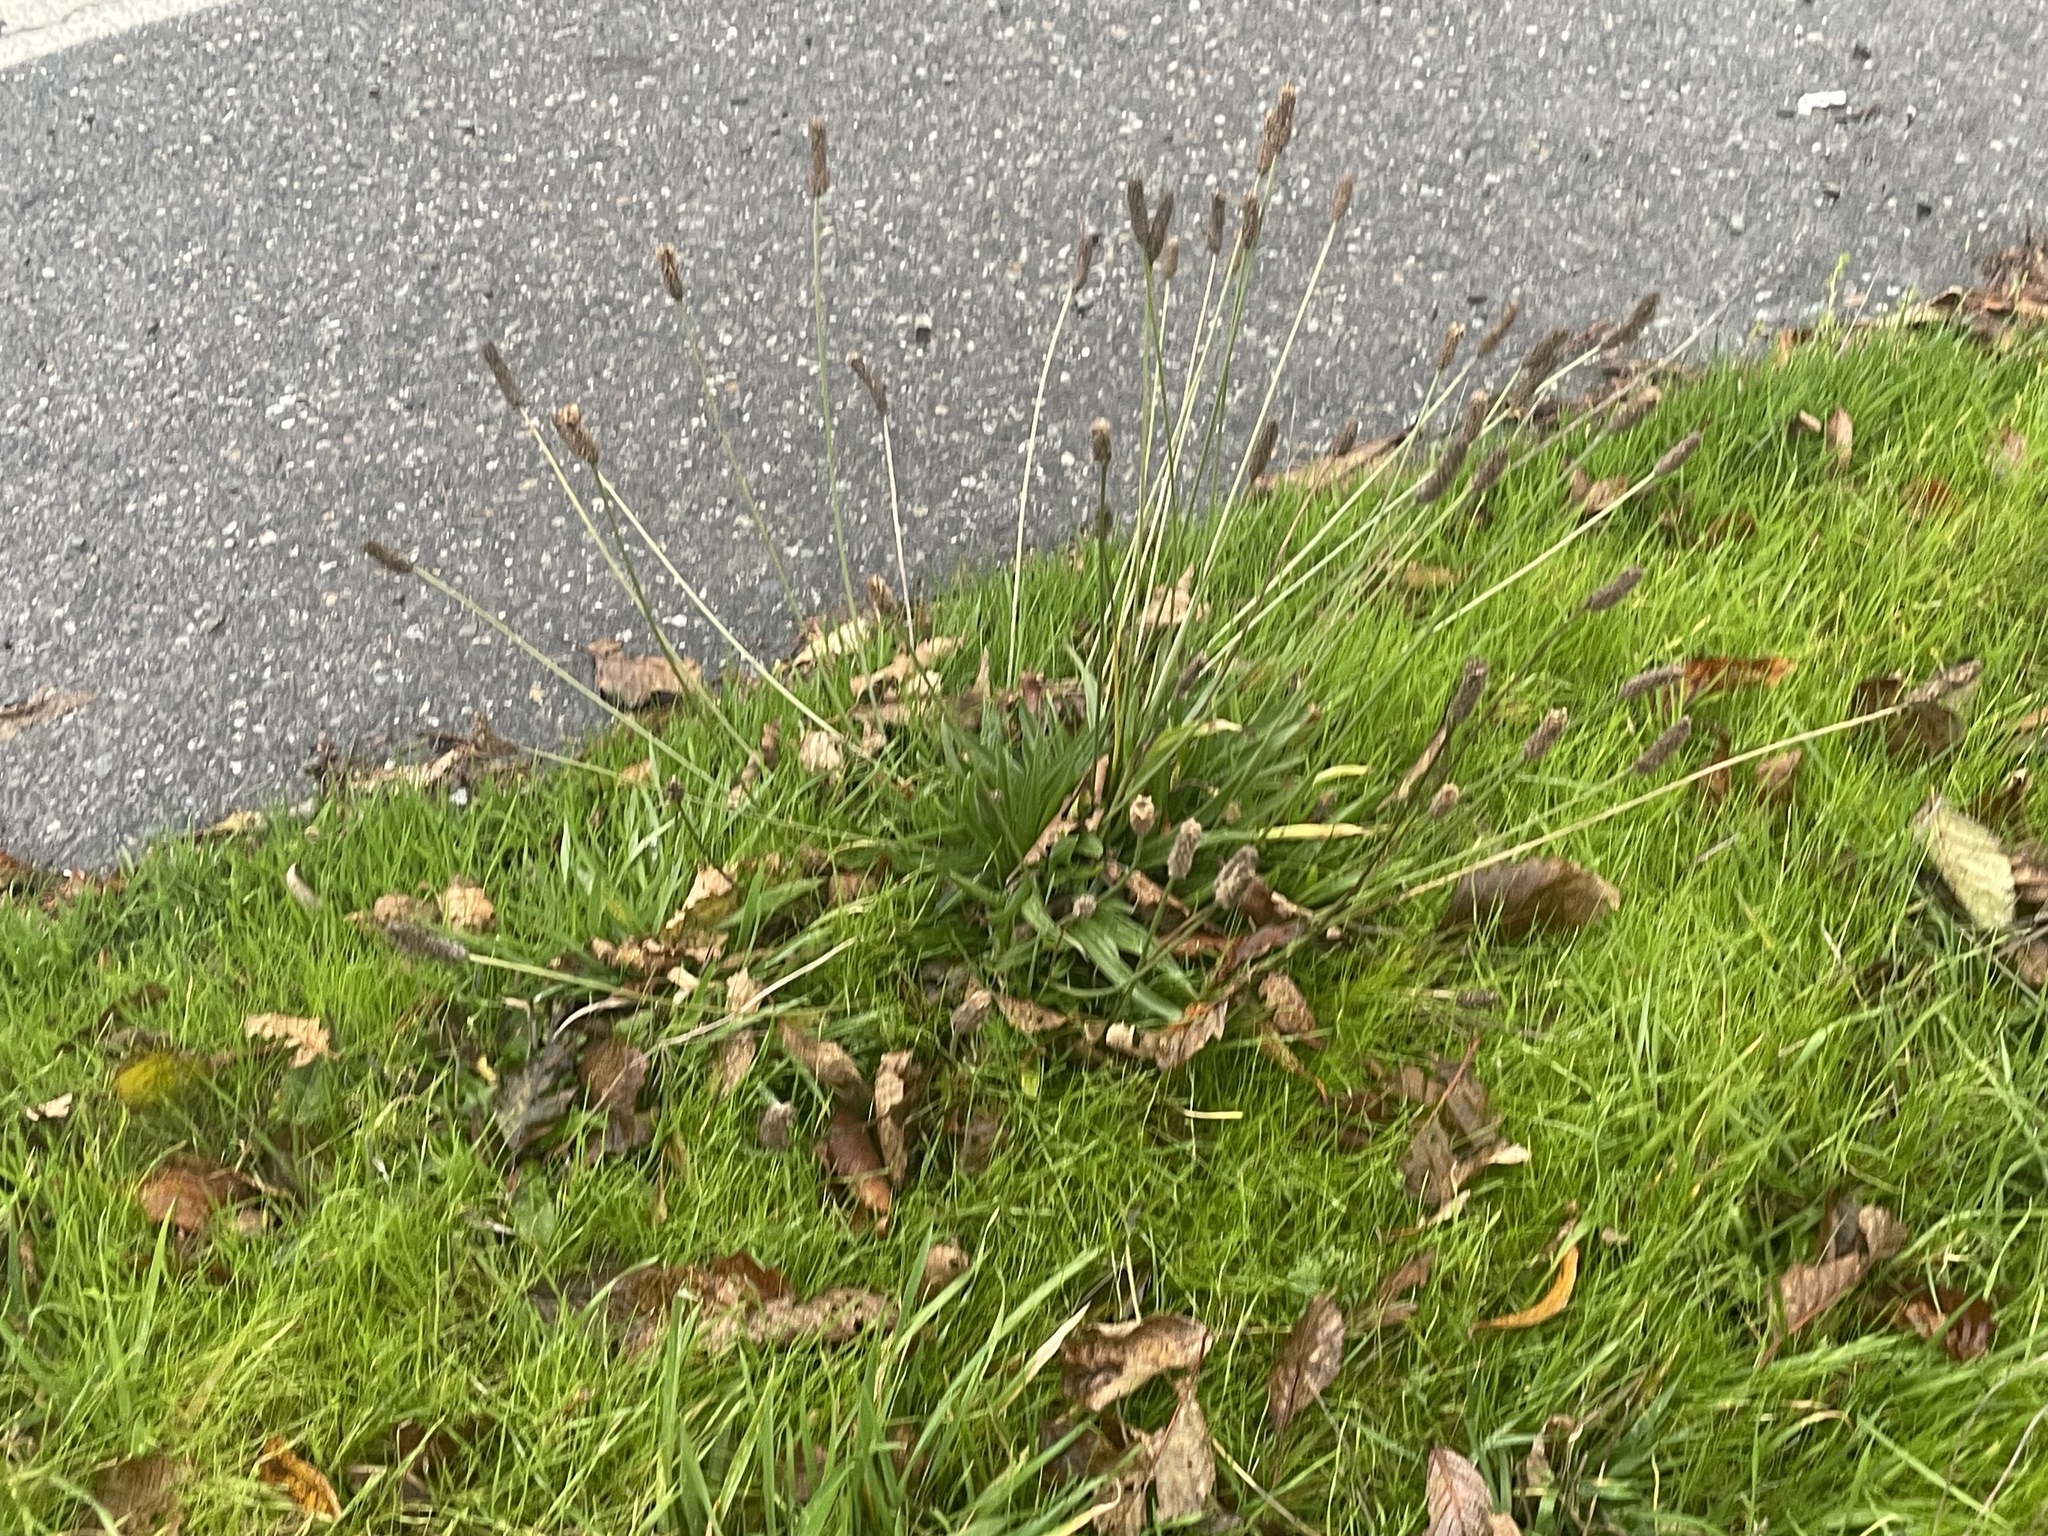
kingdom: Plantae
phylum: Tracheophyta
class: Magnoliopsida
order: Lamiales
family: Plantaginaceae
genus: Plantago
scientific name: Plantago lanceolata
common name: Ribwort plantain
